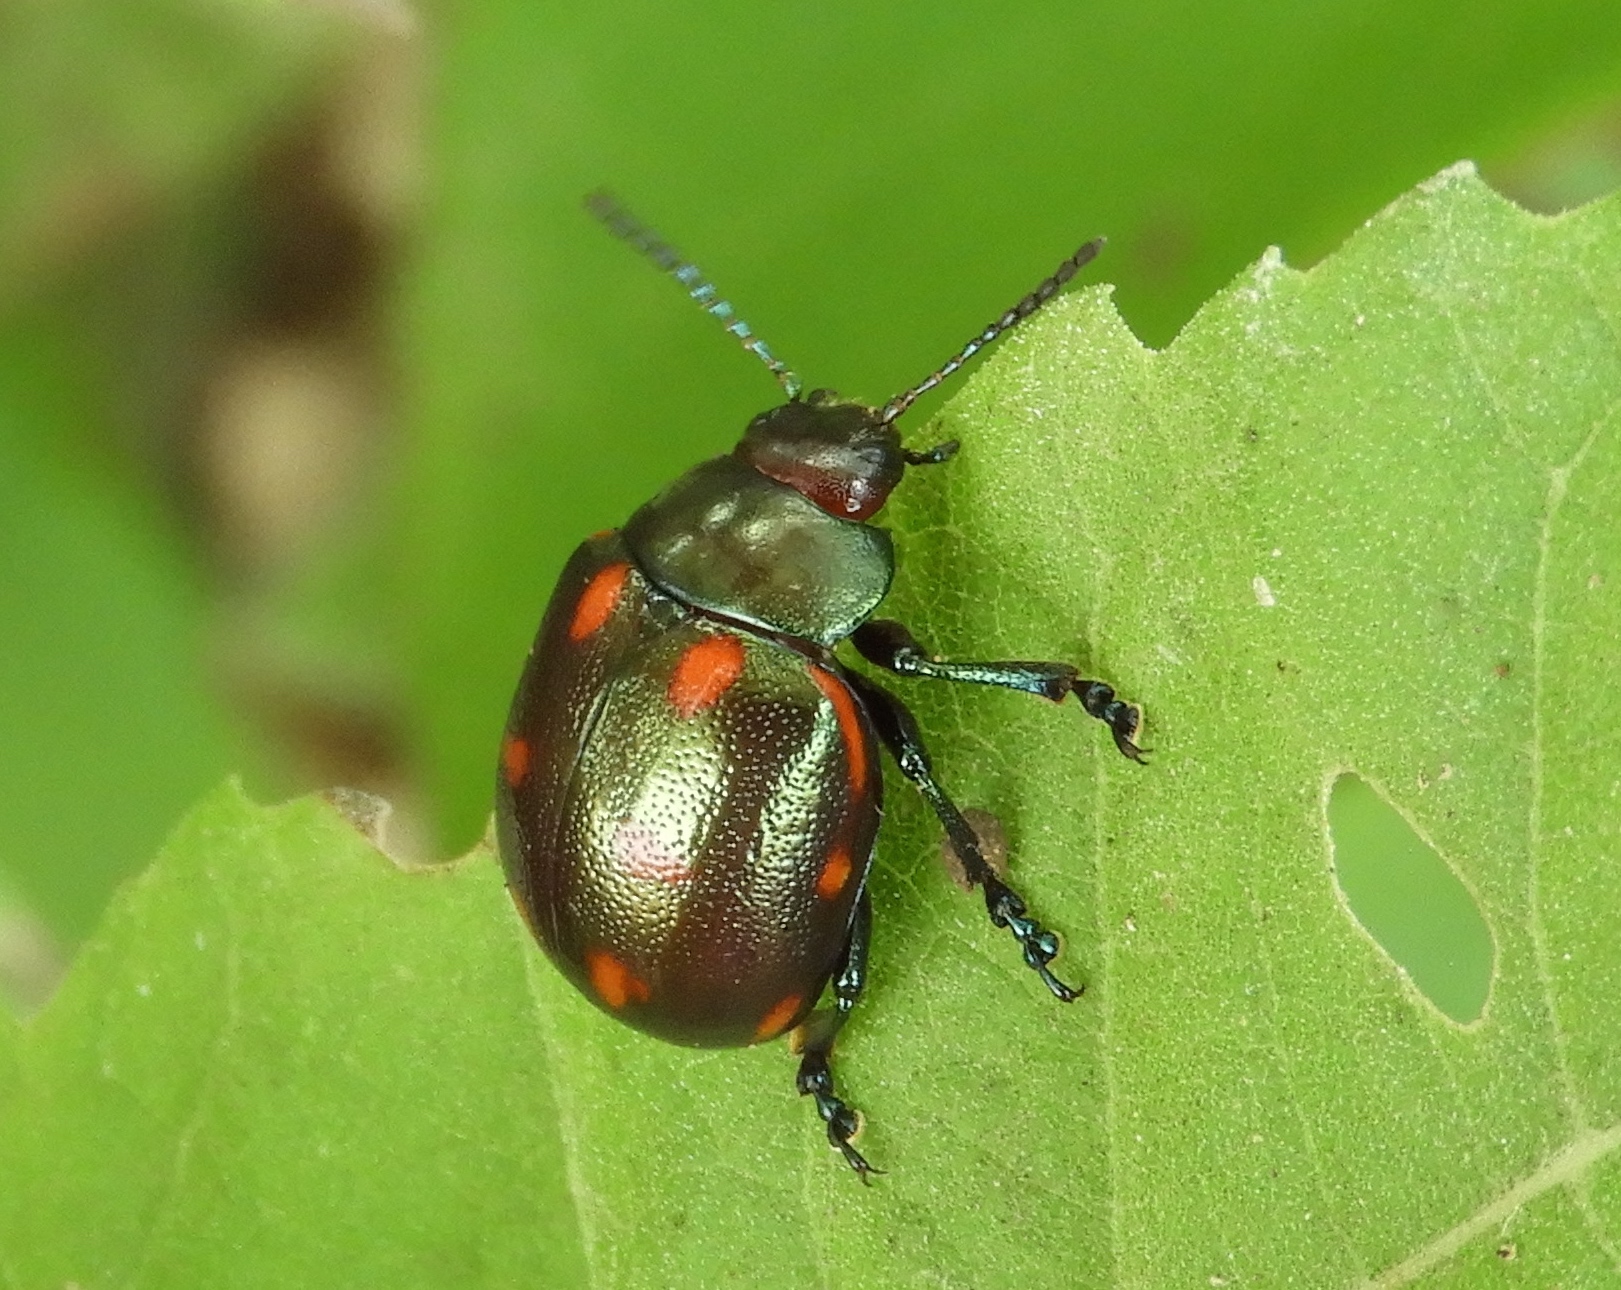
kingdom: Animalia
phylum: Arthropoda
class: Insecta
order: Coleoptera
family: Chrysomelidae
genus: Leptinotarsa
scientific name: Leptinotarsa behrensi
